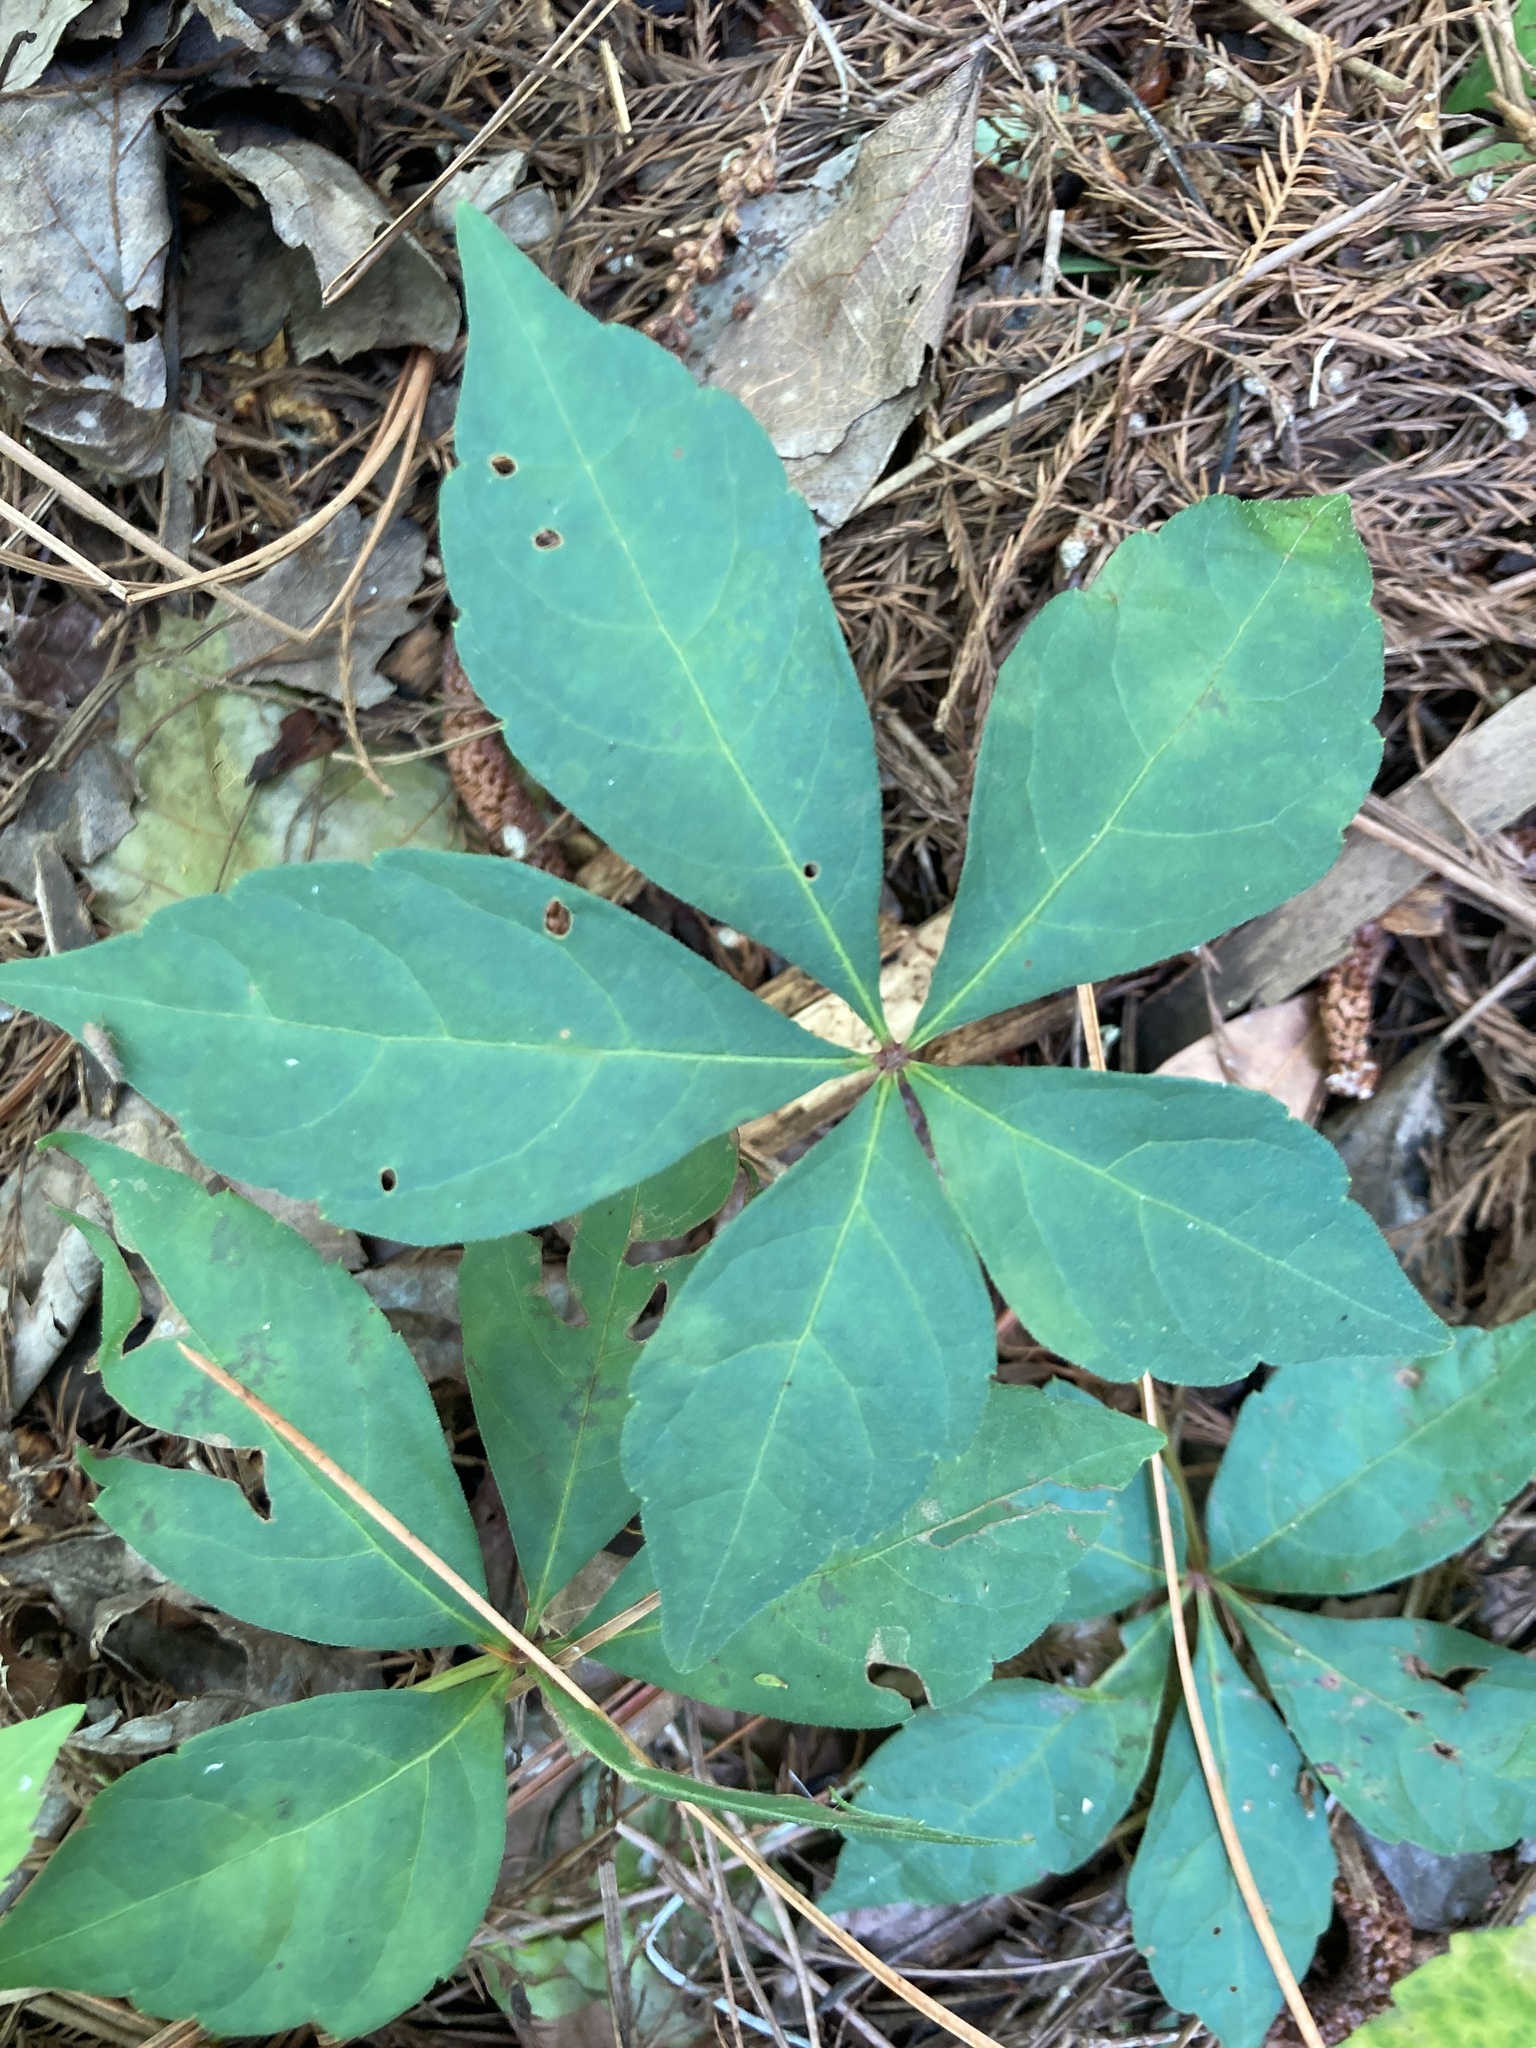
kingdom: Plantae
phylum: Tracheophyta
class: Magnoliopsida
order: Vitales
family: Vitaceae
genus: Parthenocissus
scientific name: Parthenocissus quinquefolia
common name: Virginia-creeper
